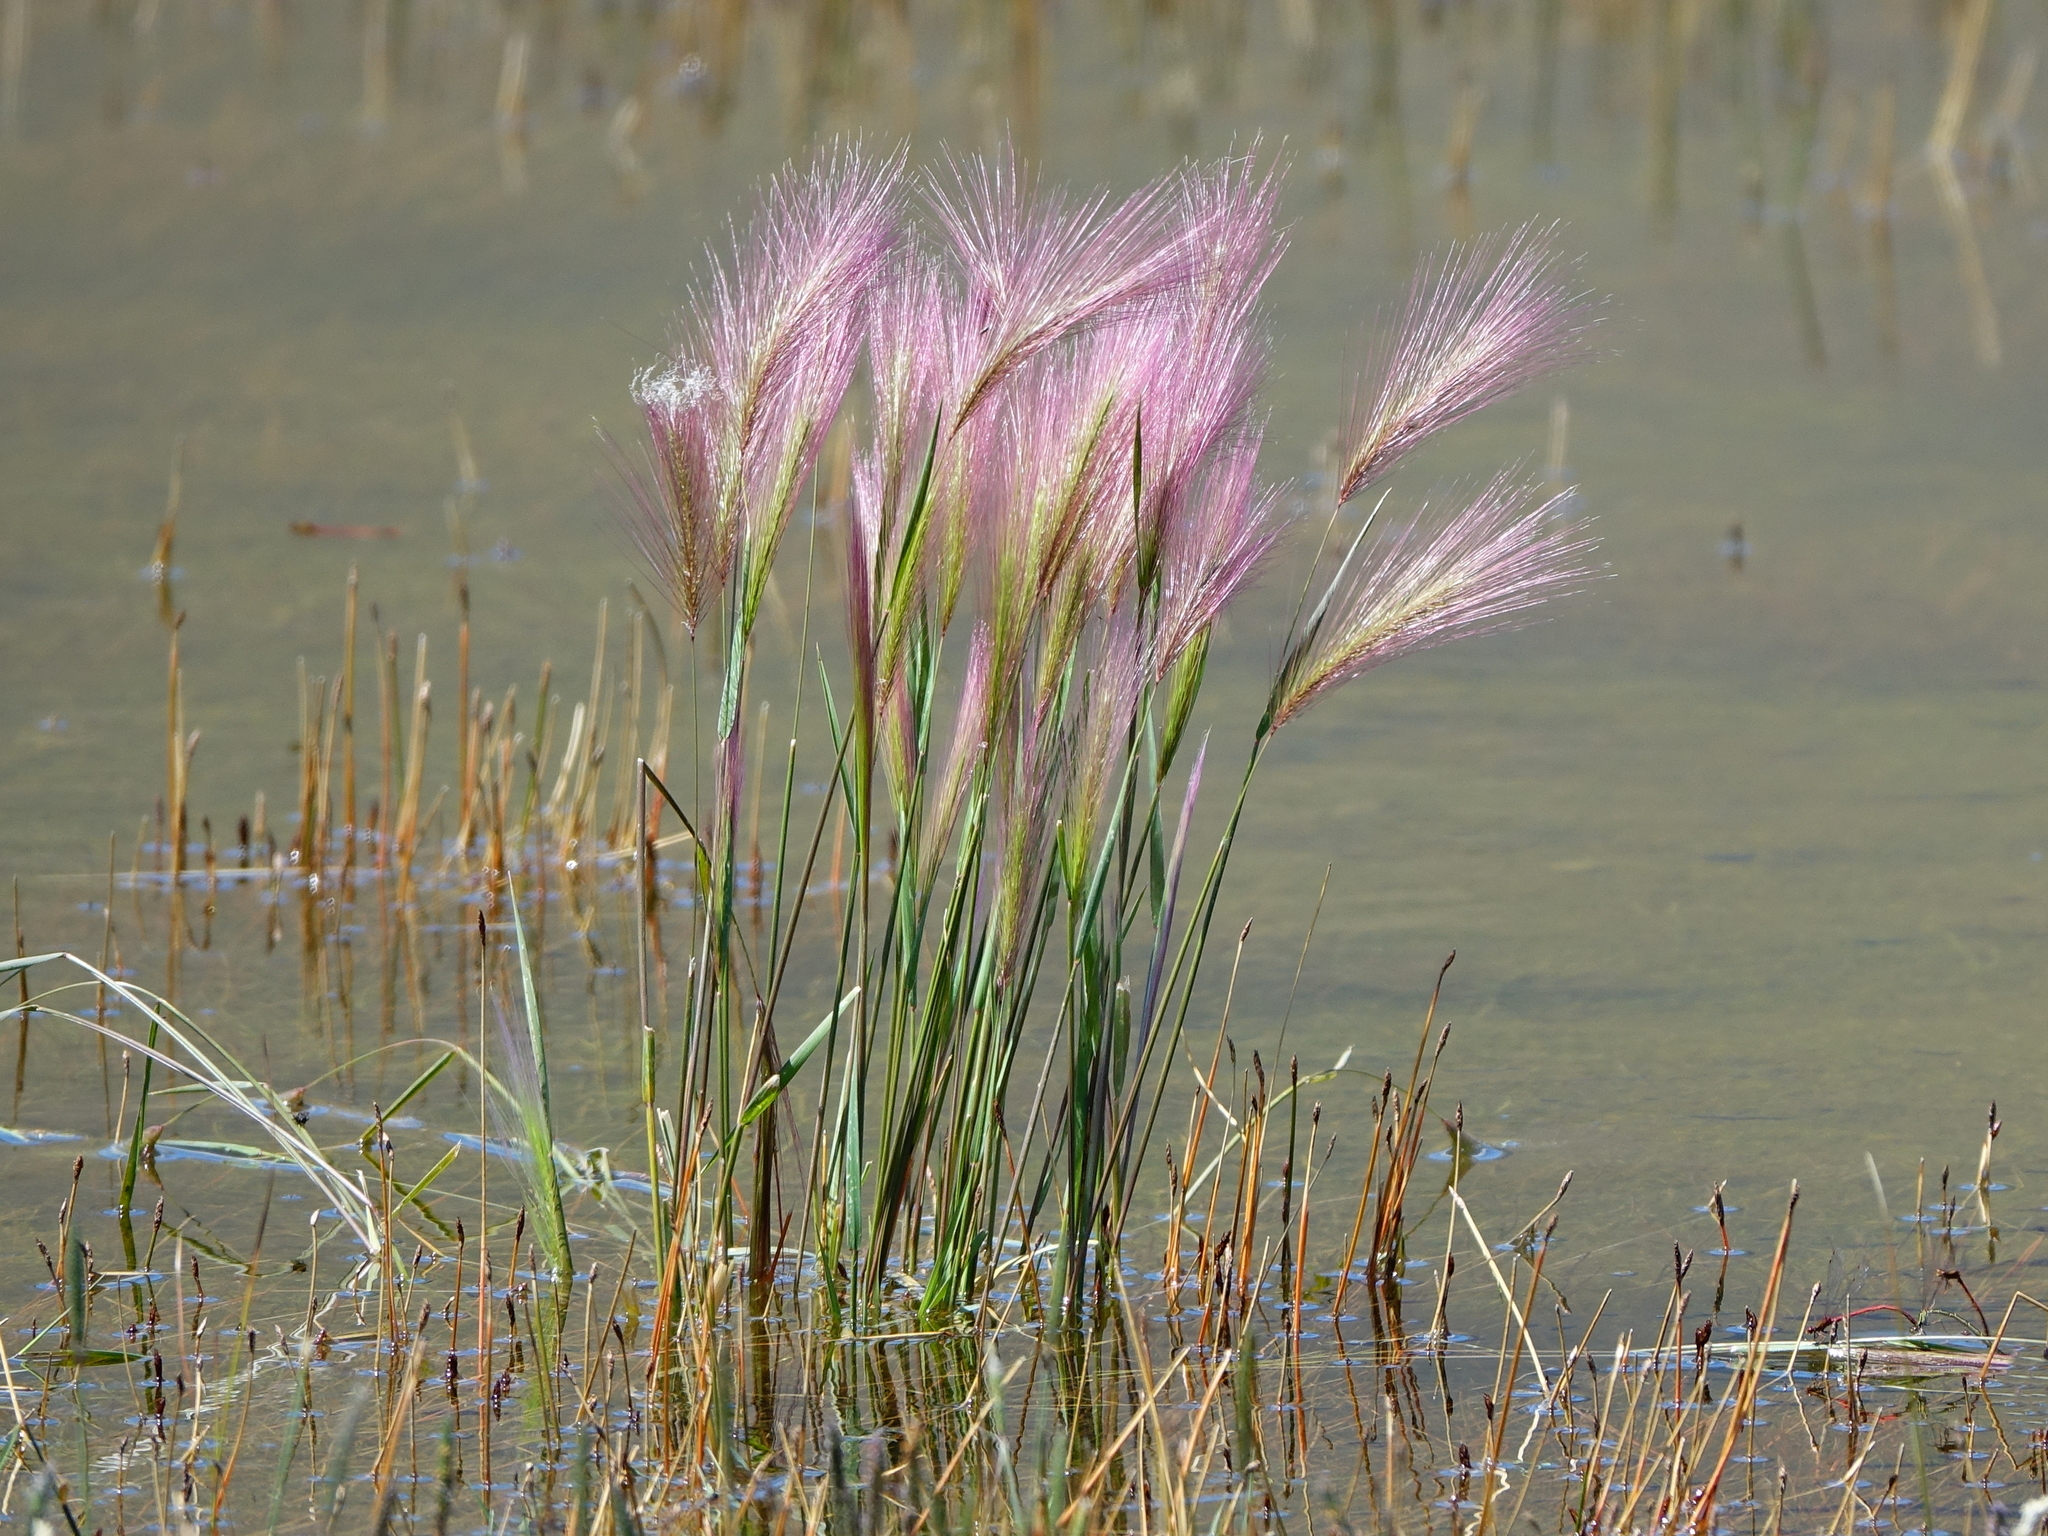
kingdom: Plantae
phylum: Tracheophyta
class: Liliopsida
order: Poales
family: Poaceae
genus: Hordeum
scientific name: Hordeum jubatum
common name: Foxtail barley
